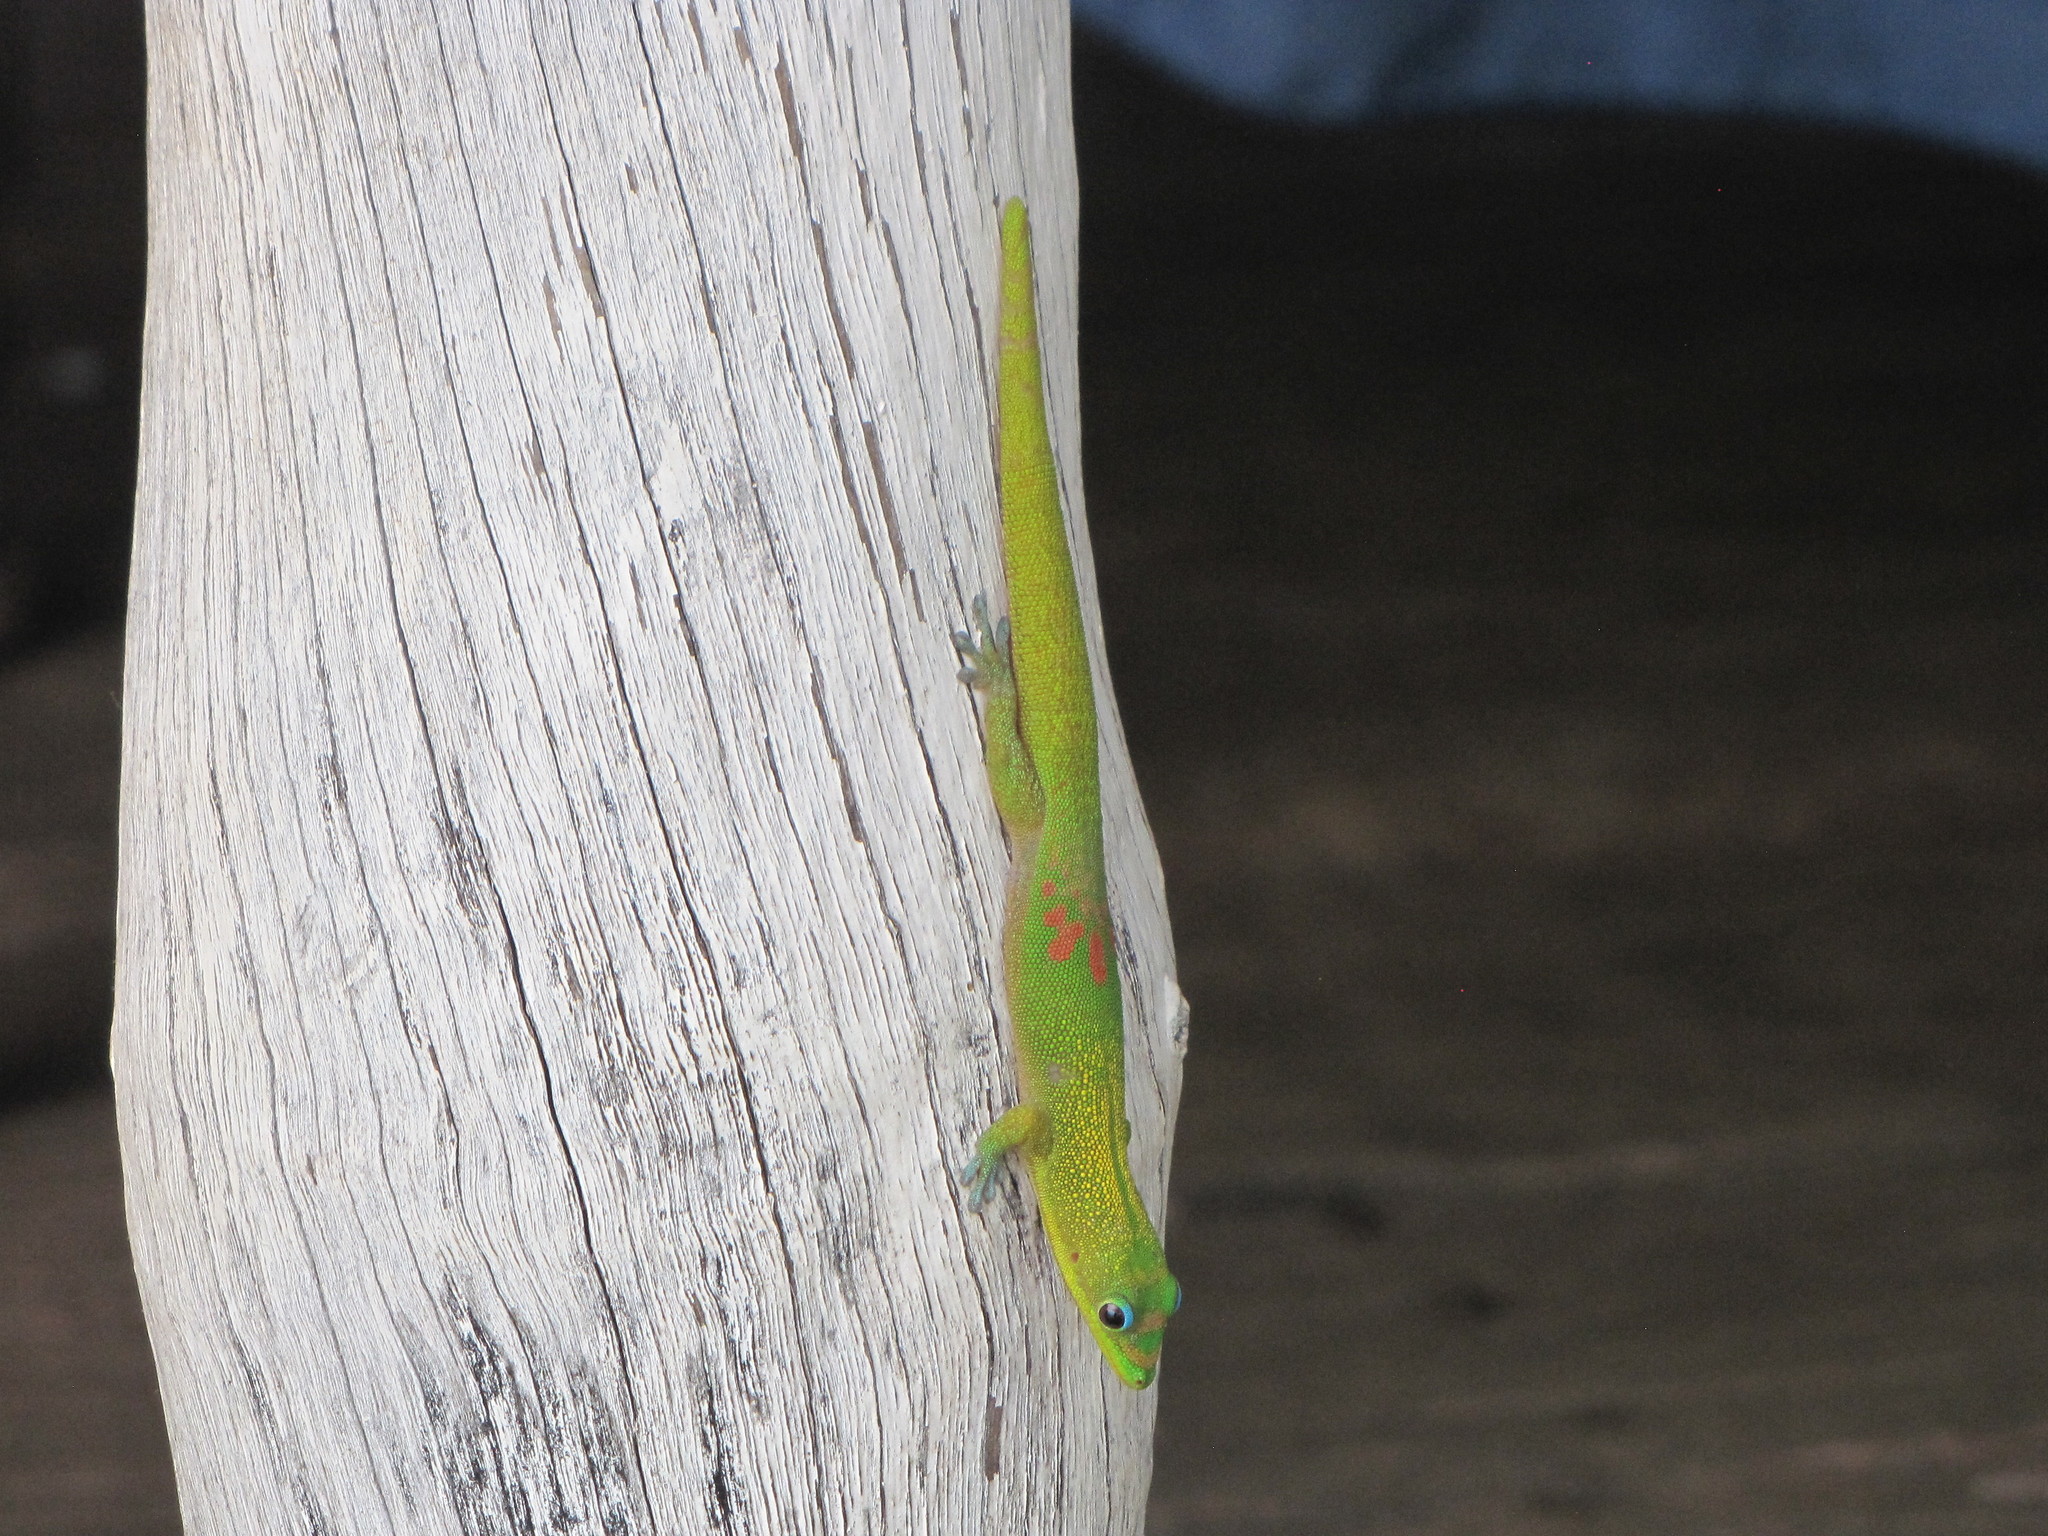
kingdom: Animalia
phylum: Chordata
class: Squamata
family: Gekkonidae
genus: Phelsuma
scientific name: Phelsuma laticauda
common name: Gold dust day gecko
